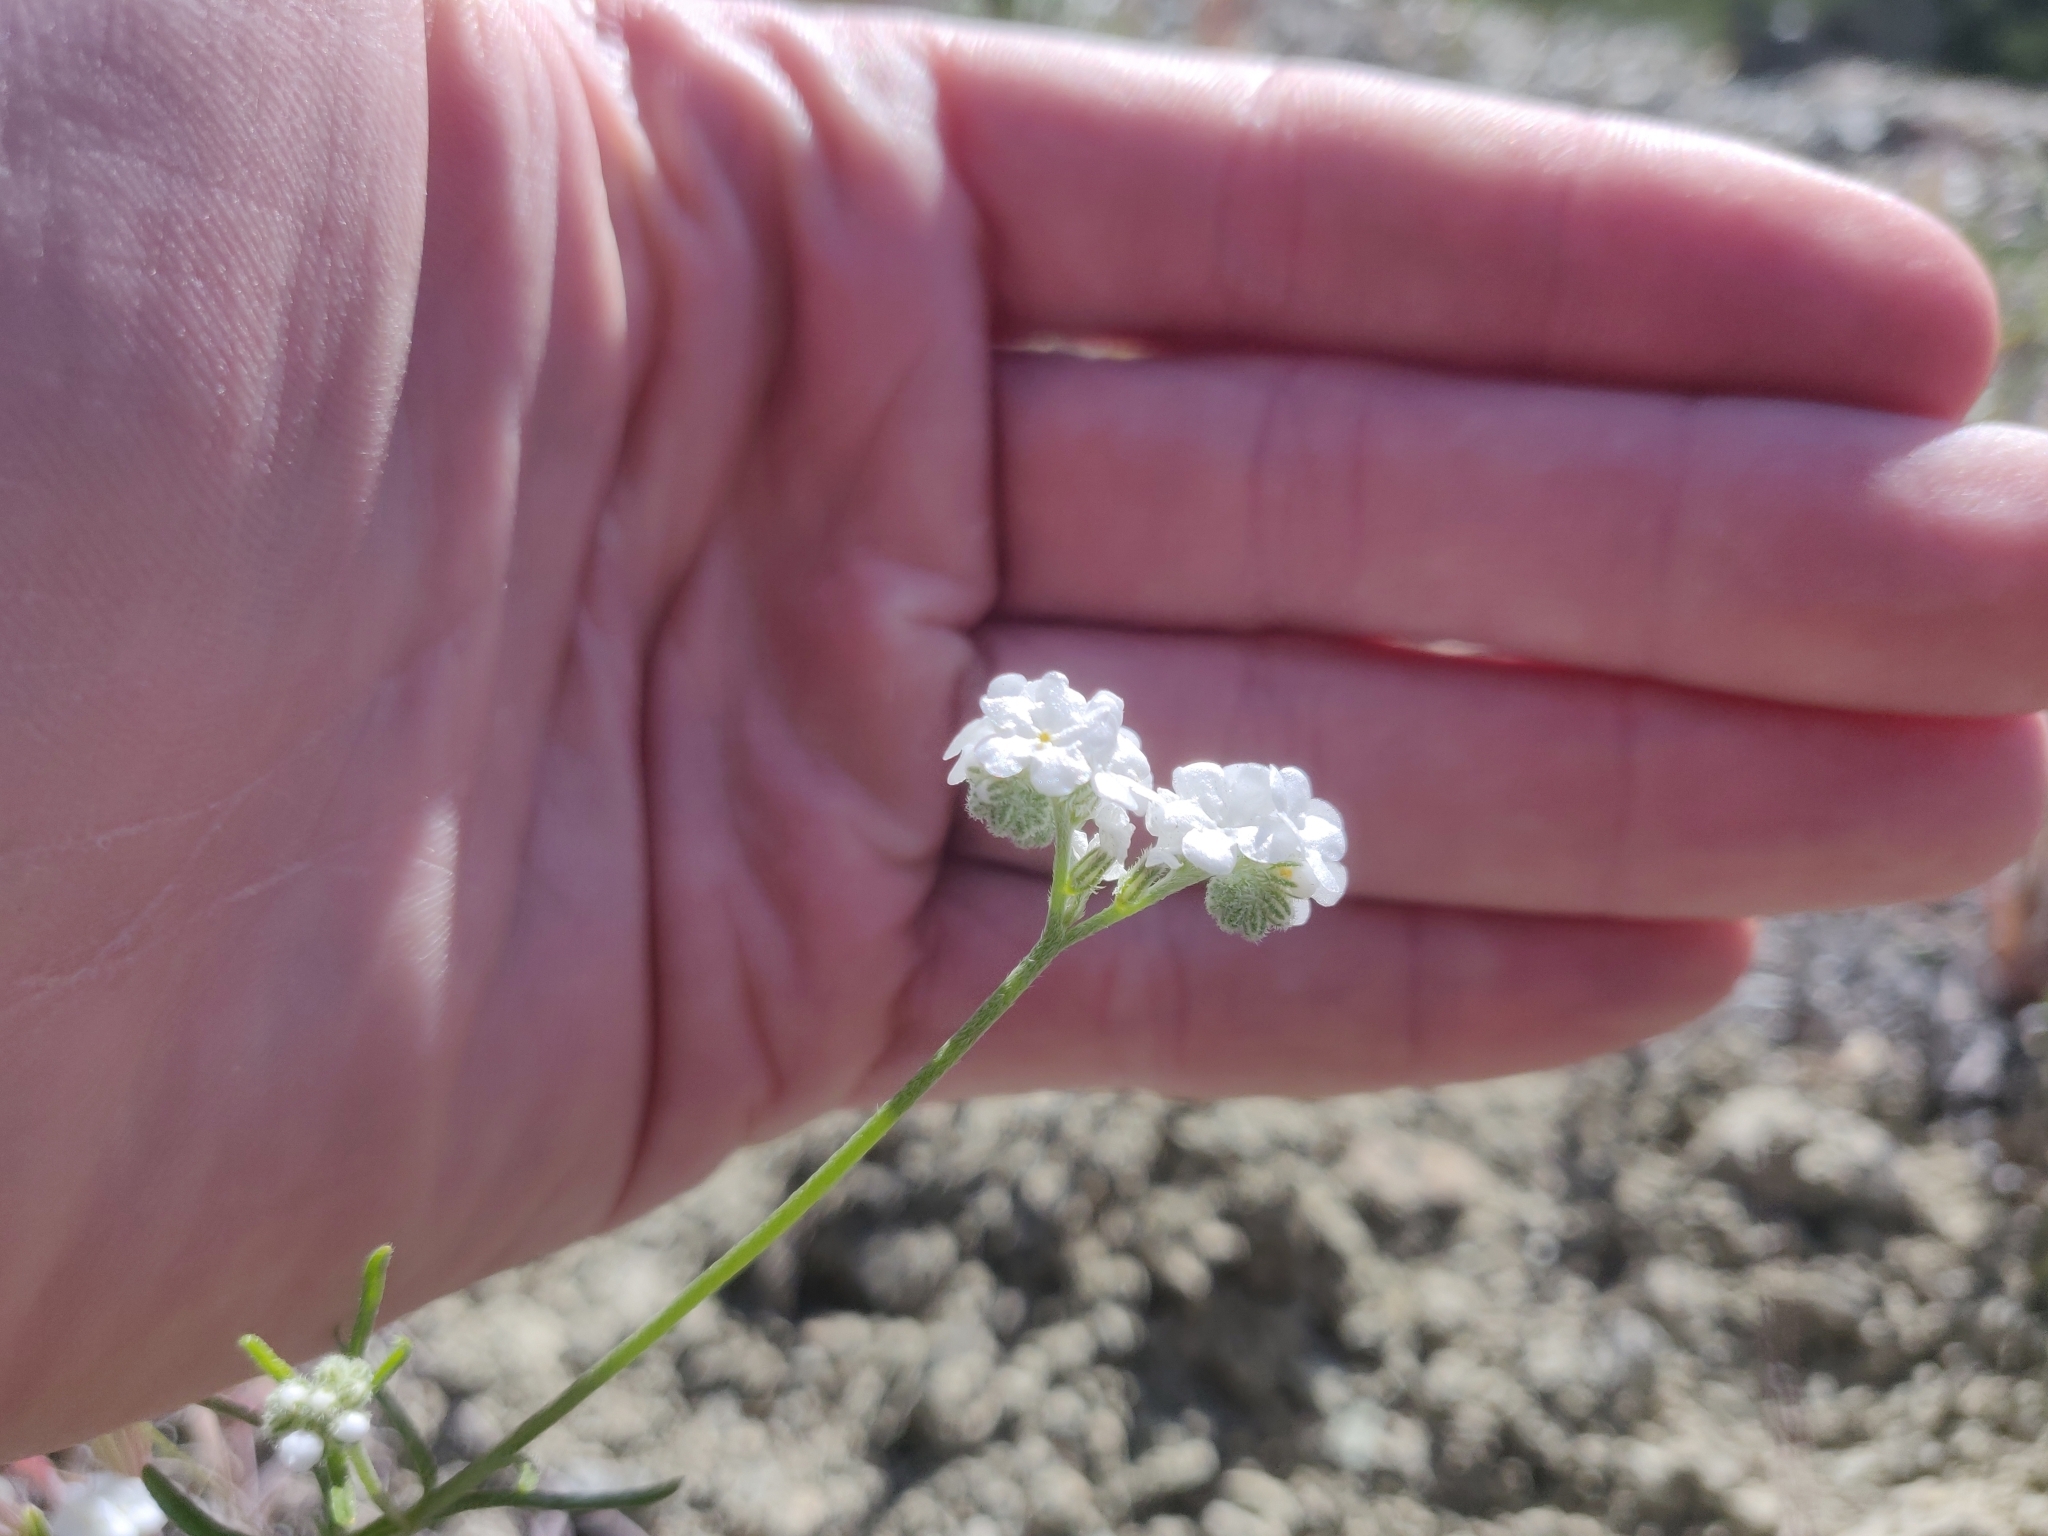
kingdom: Plantae
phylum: Tracheophyta
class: Magnoliopsida
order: Boraginales
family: Boraginaceae
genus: Cryptantha
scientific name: Cryptantha flaccida
